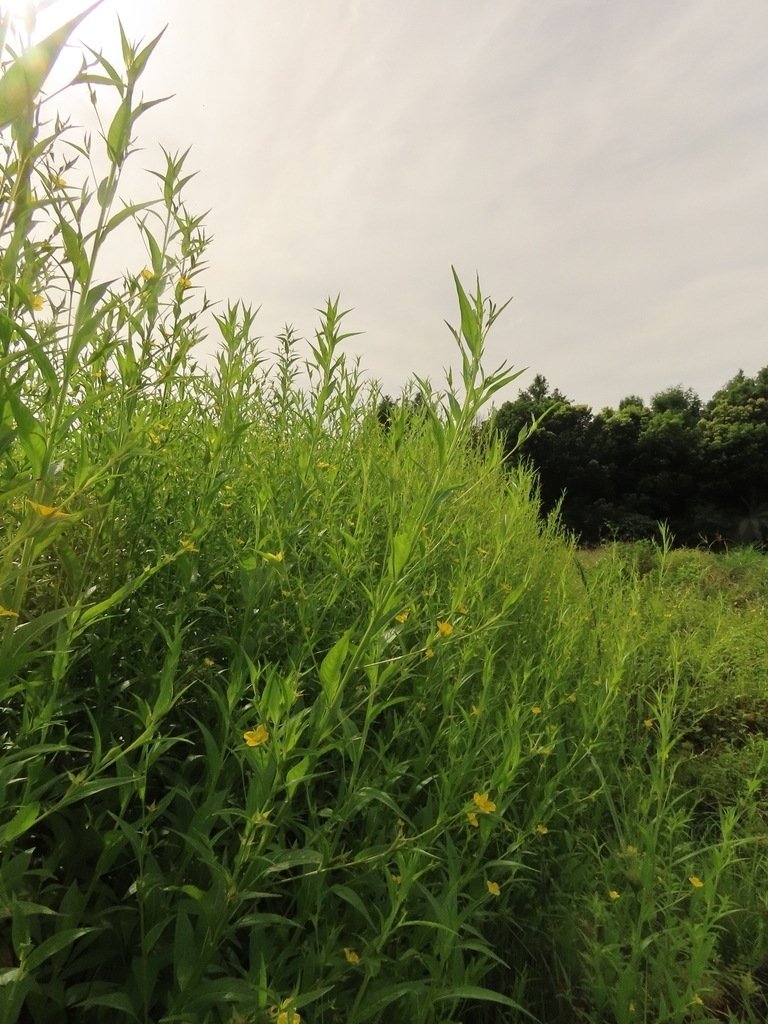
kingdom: Plantae
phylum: Tracheophyta
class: Magnoliopsida
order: Myrtales
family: Onagraceae
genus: Ludwigia
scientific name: Ludwigia decurrens
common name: Winged water-primrose
